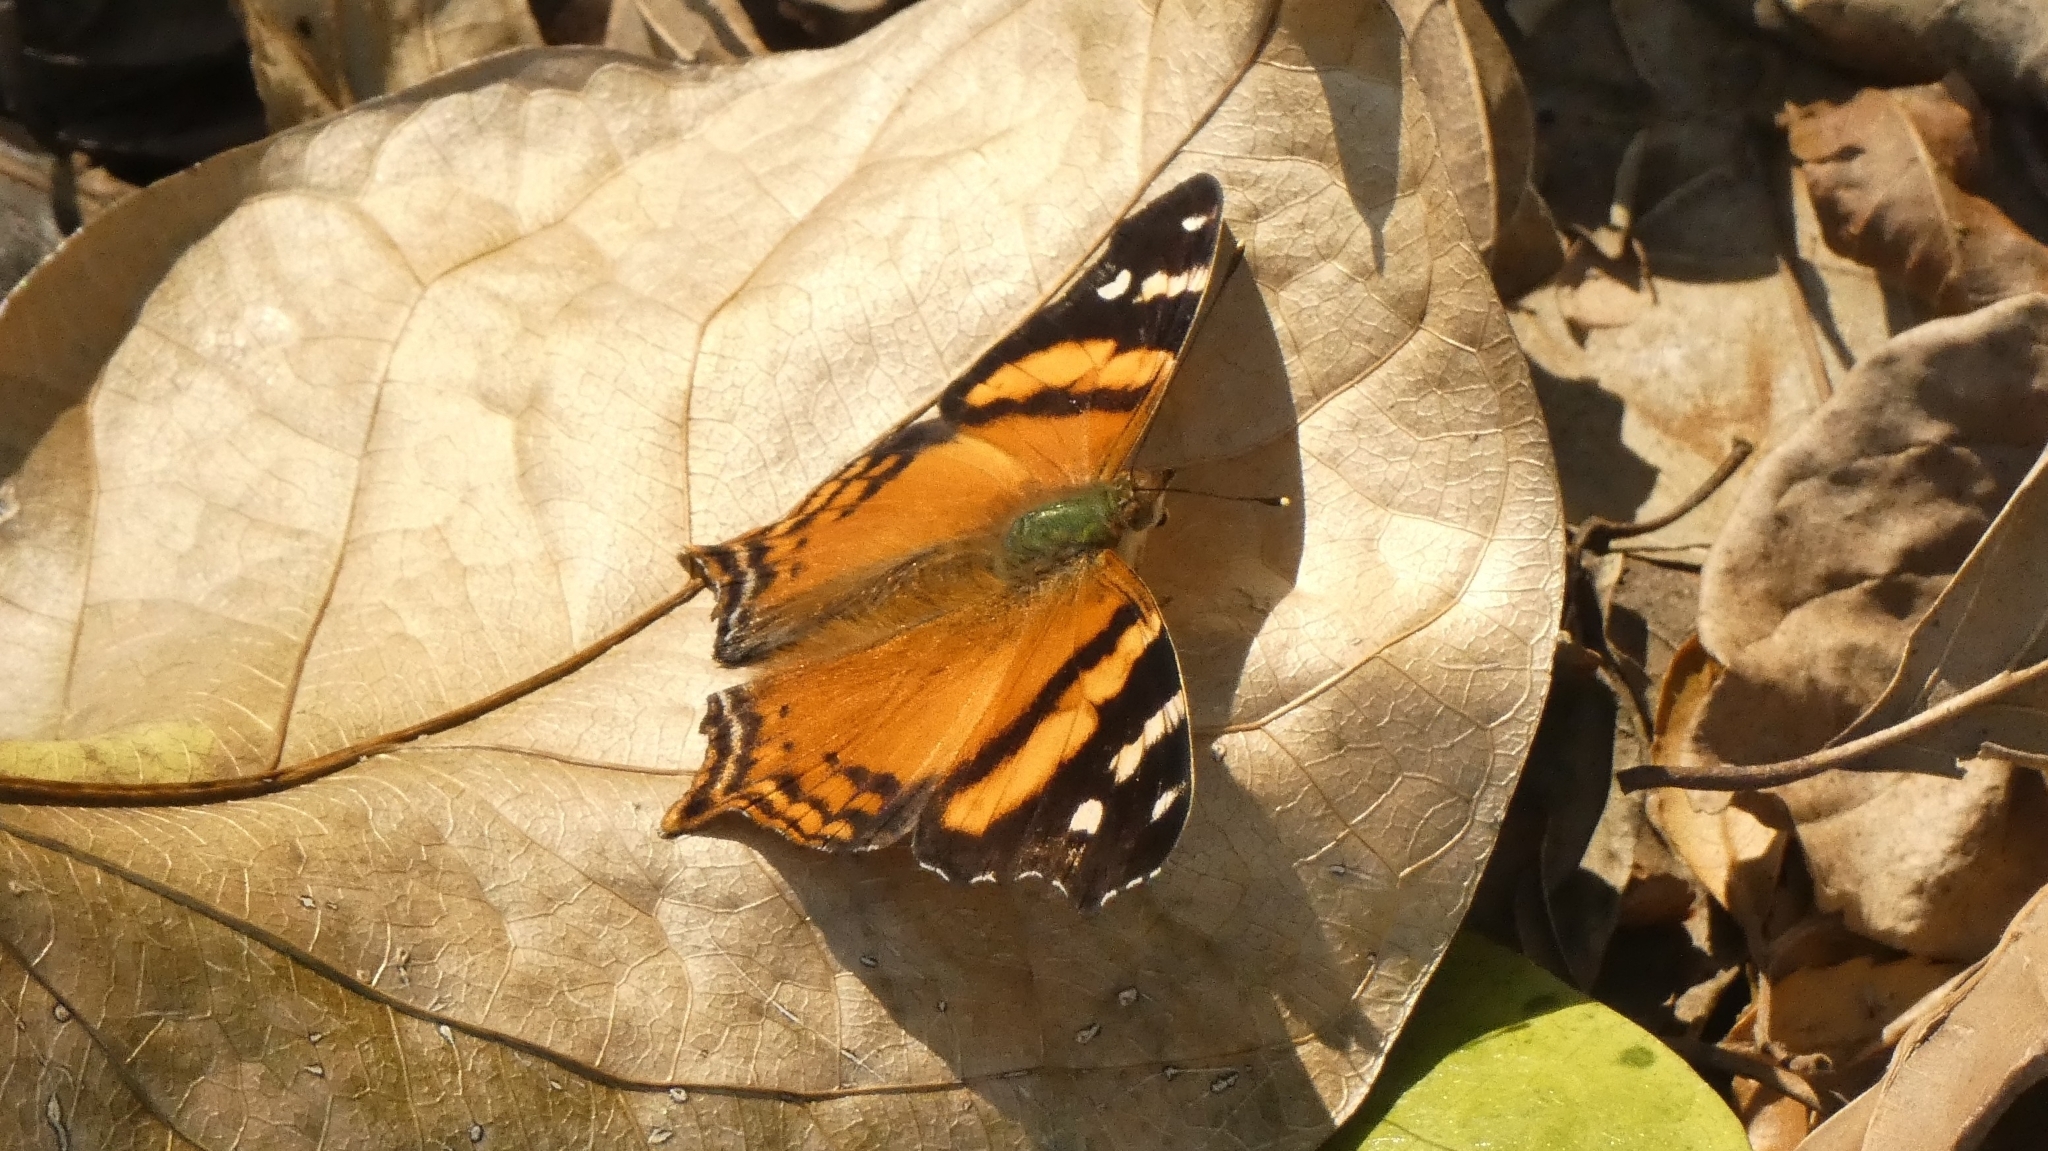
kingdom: Animalia
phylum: Arthropoda
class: Insecta
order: Lepidoptera
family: Nymphalidae
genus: Hypanartia
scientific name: Hypanartia bella
